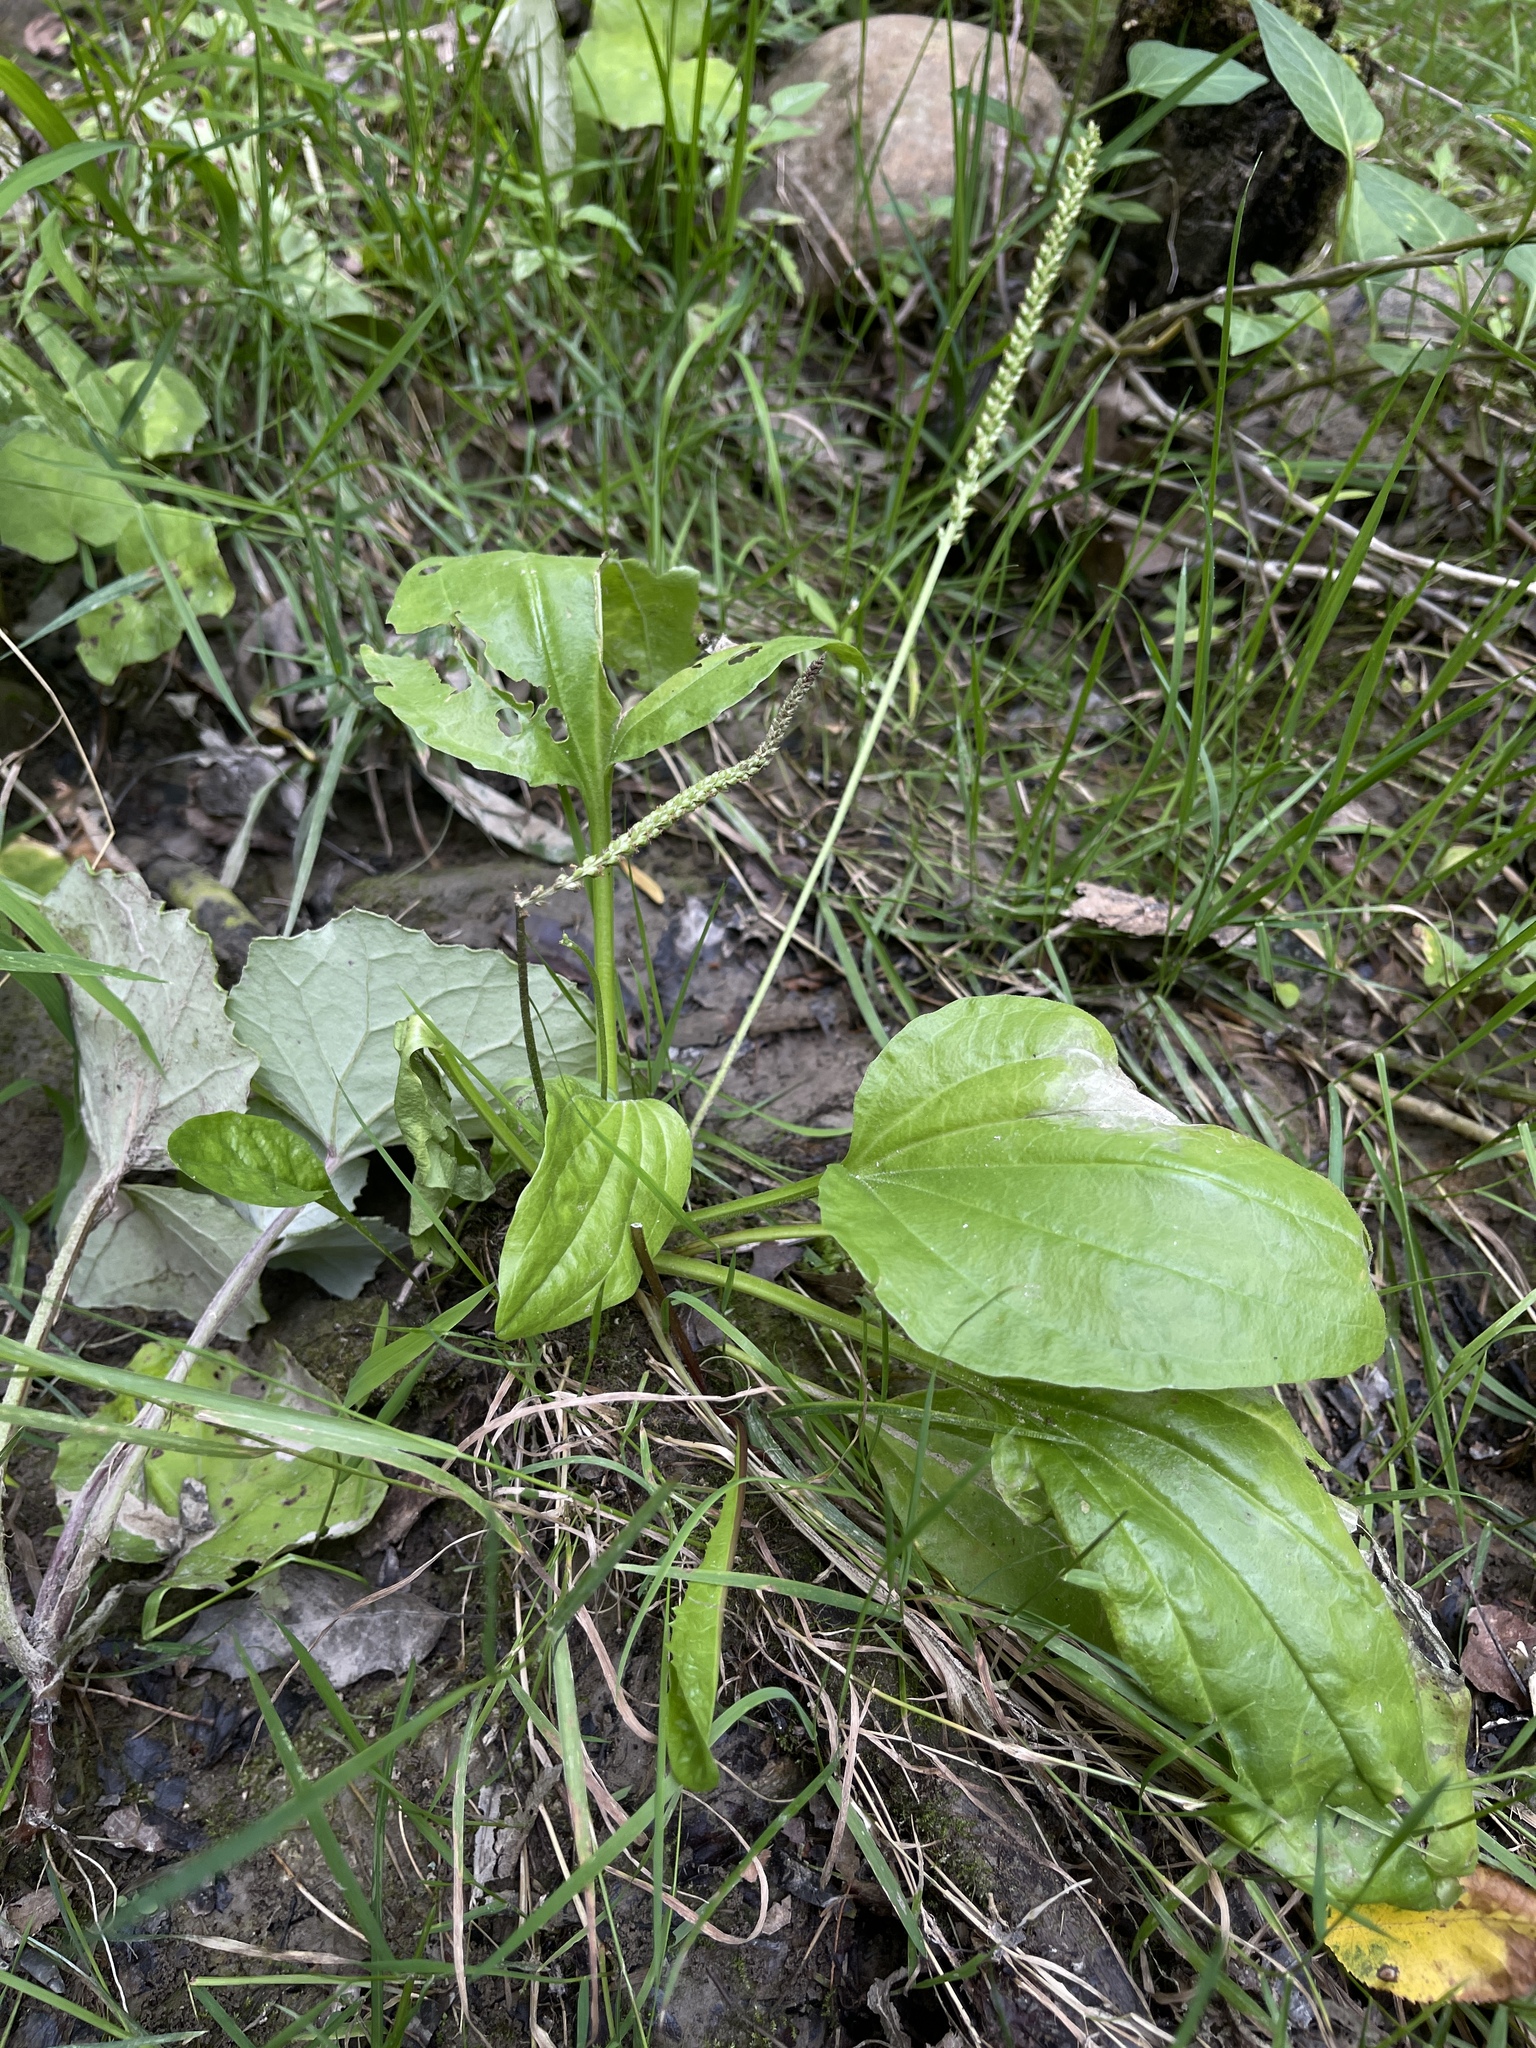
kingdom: Plantae
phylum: Tracheophyta
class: Magnoliopsida
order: Lamiales
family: Plantaginaceae
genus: Plantago
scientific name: Plantago major
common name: Common plantain
